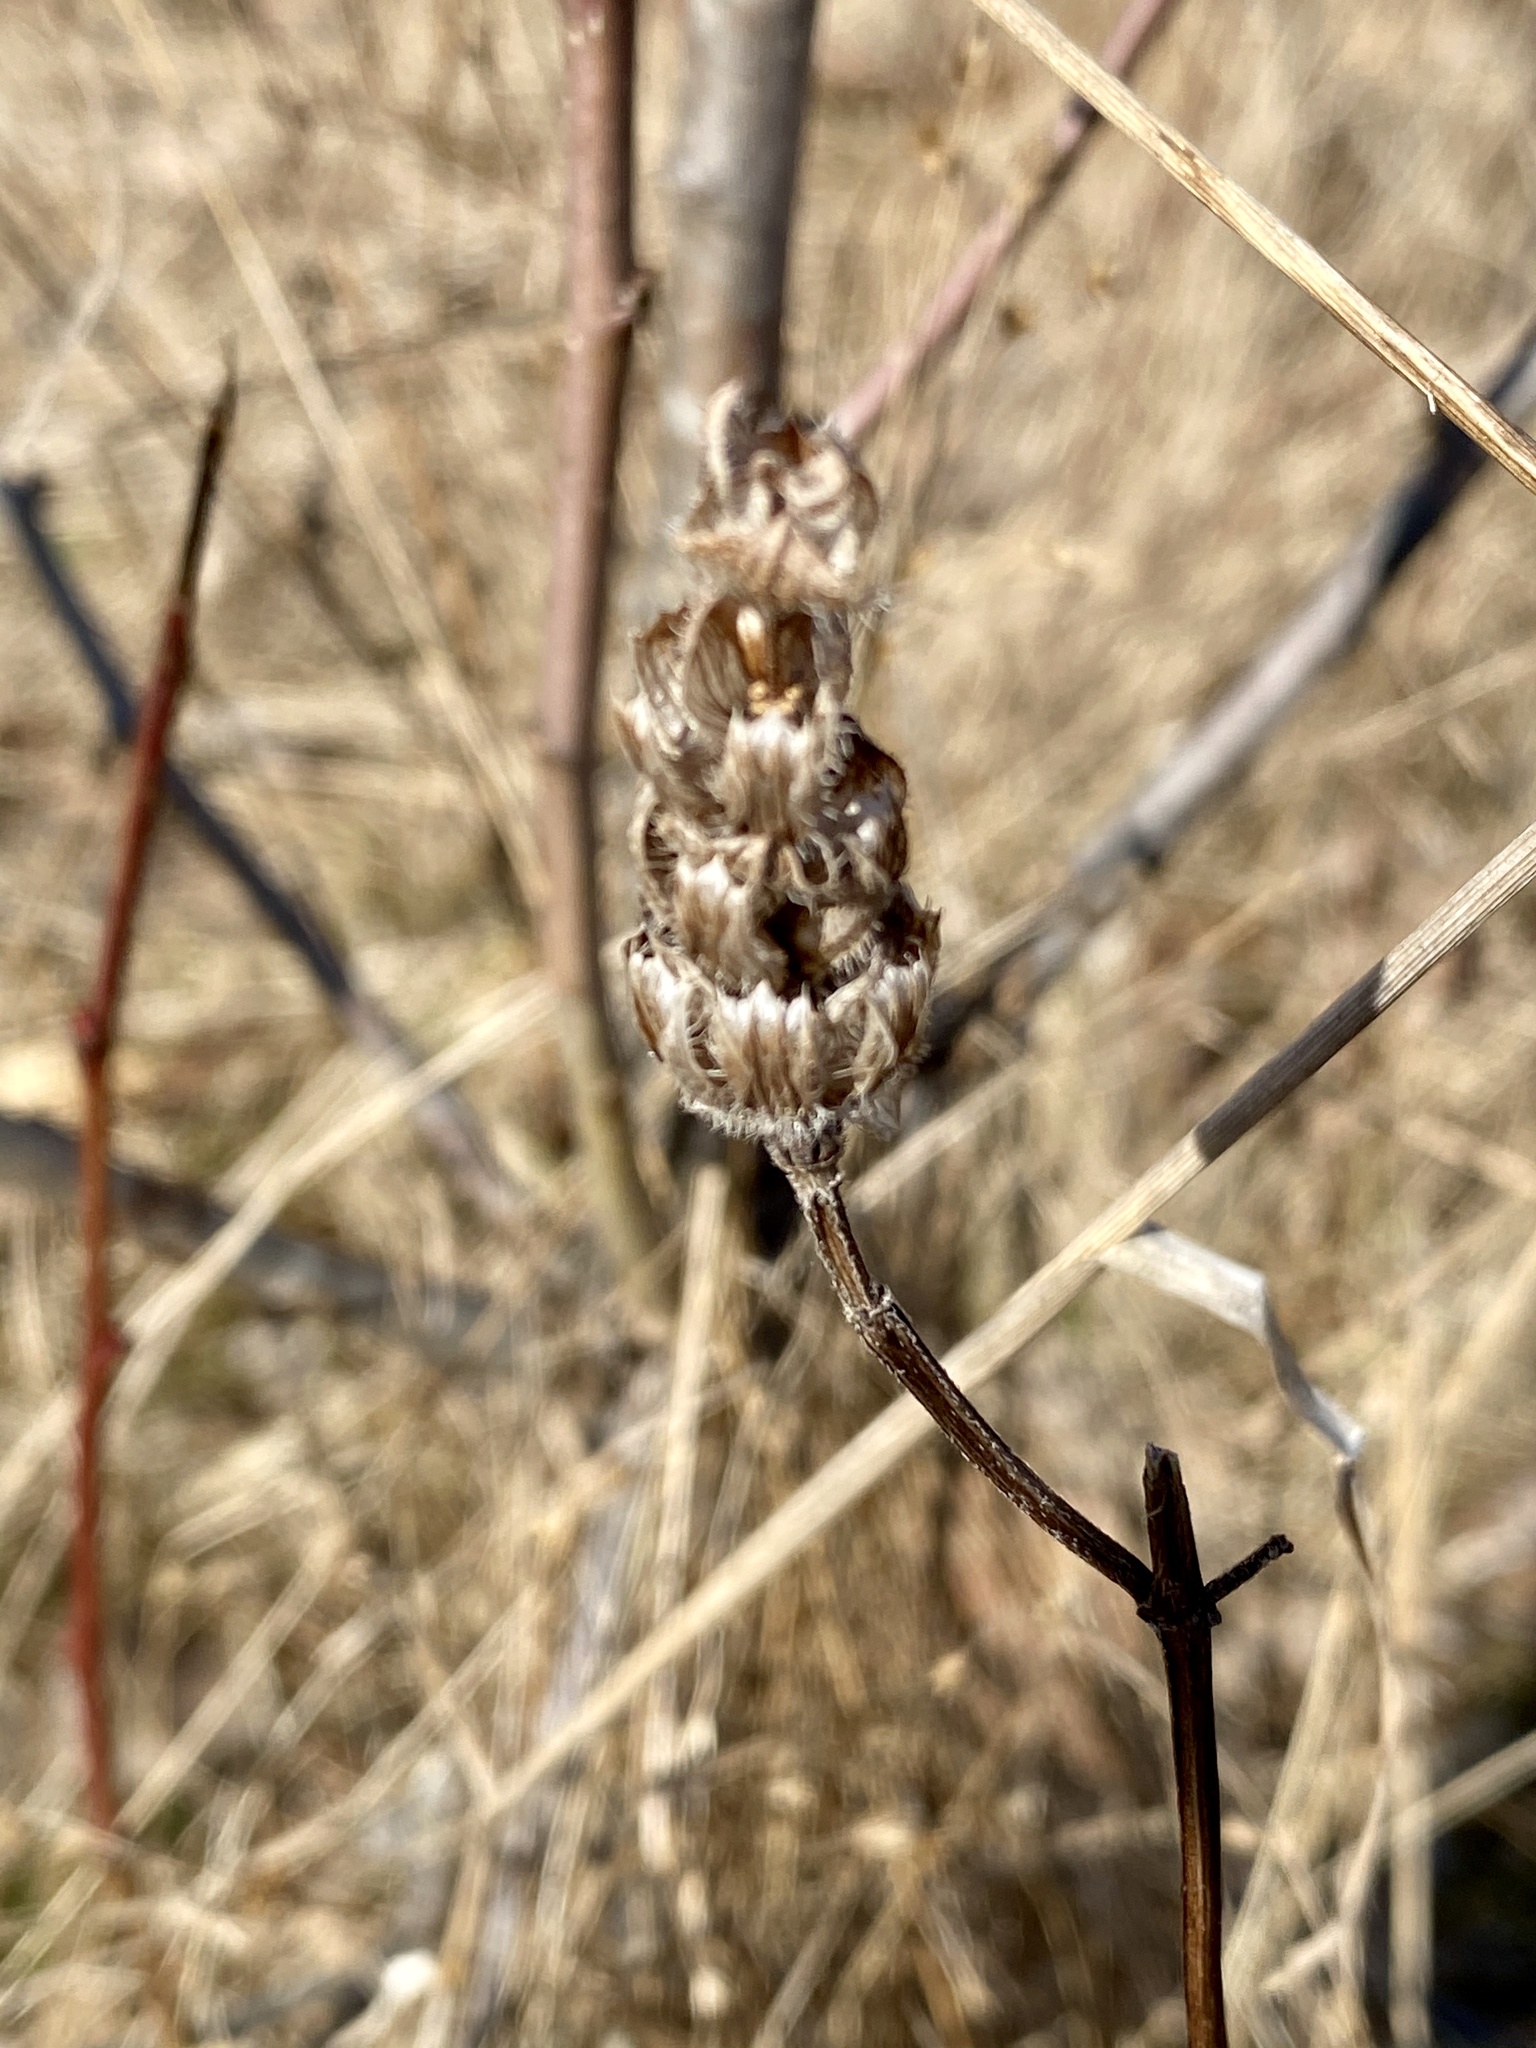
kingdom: Plantae
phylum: Tracheophyta
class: Magnoliopsida
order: Lamiales
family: Lamiaceae
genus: Prunella
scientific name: Prunella vulgaris
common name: Heal-all
